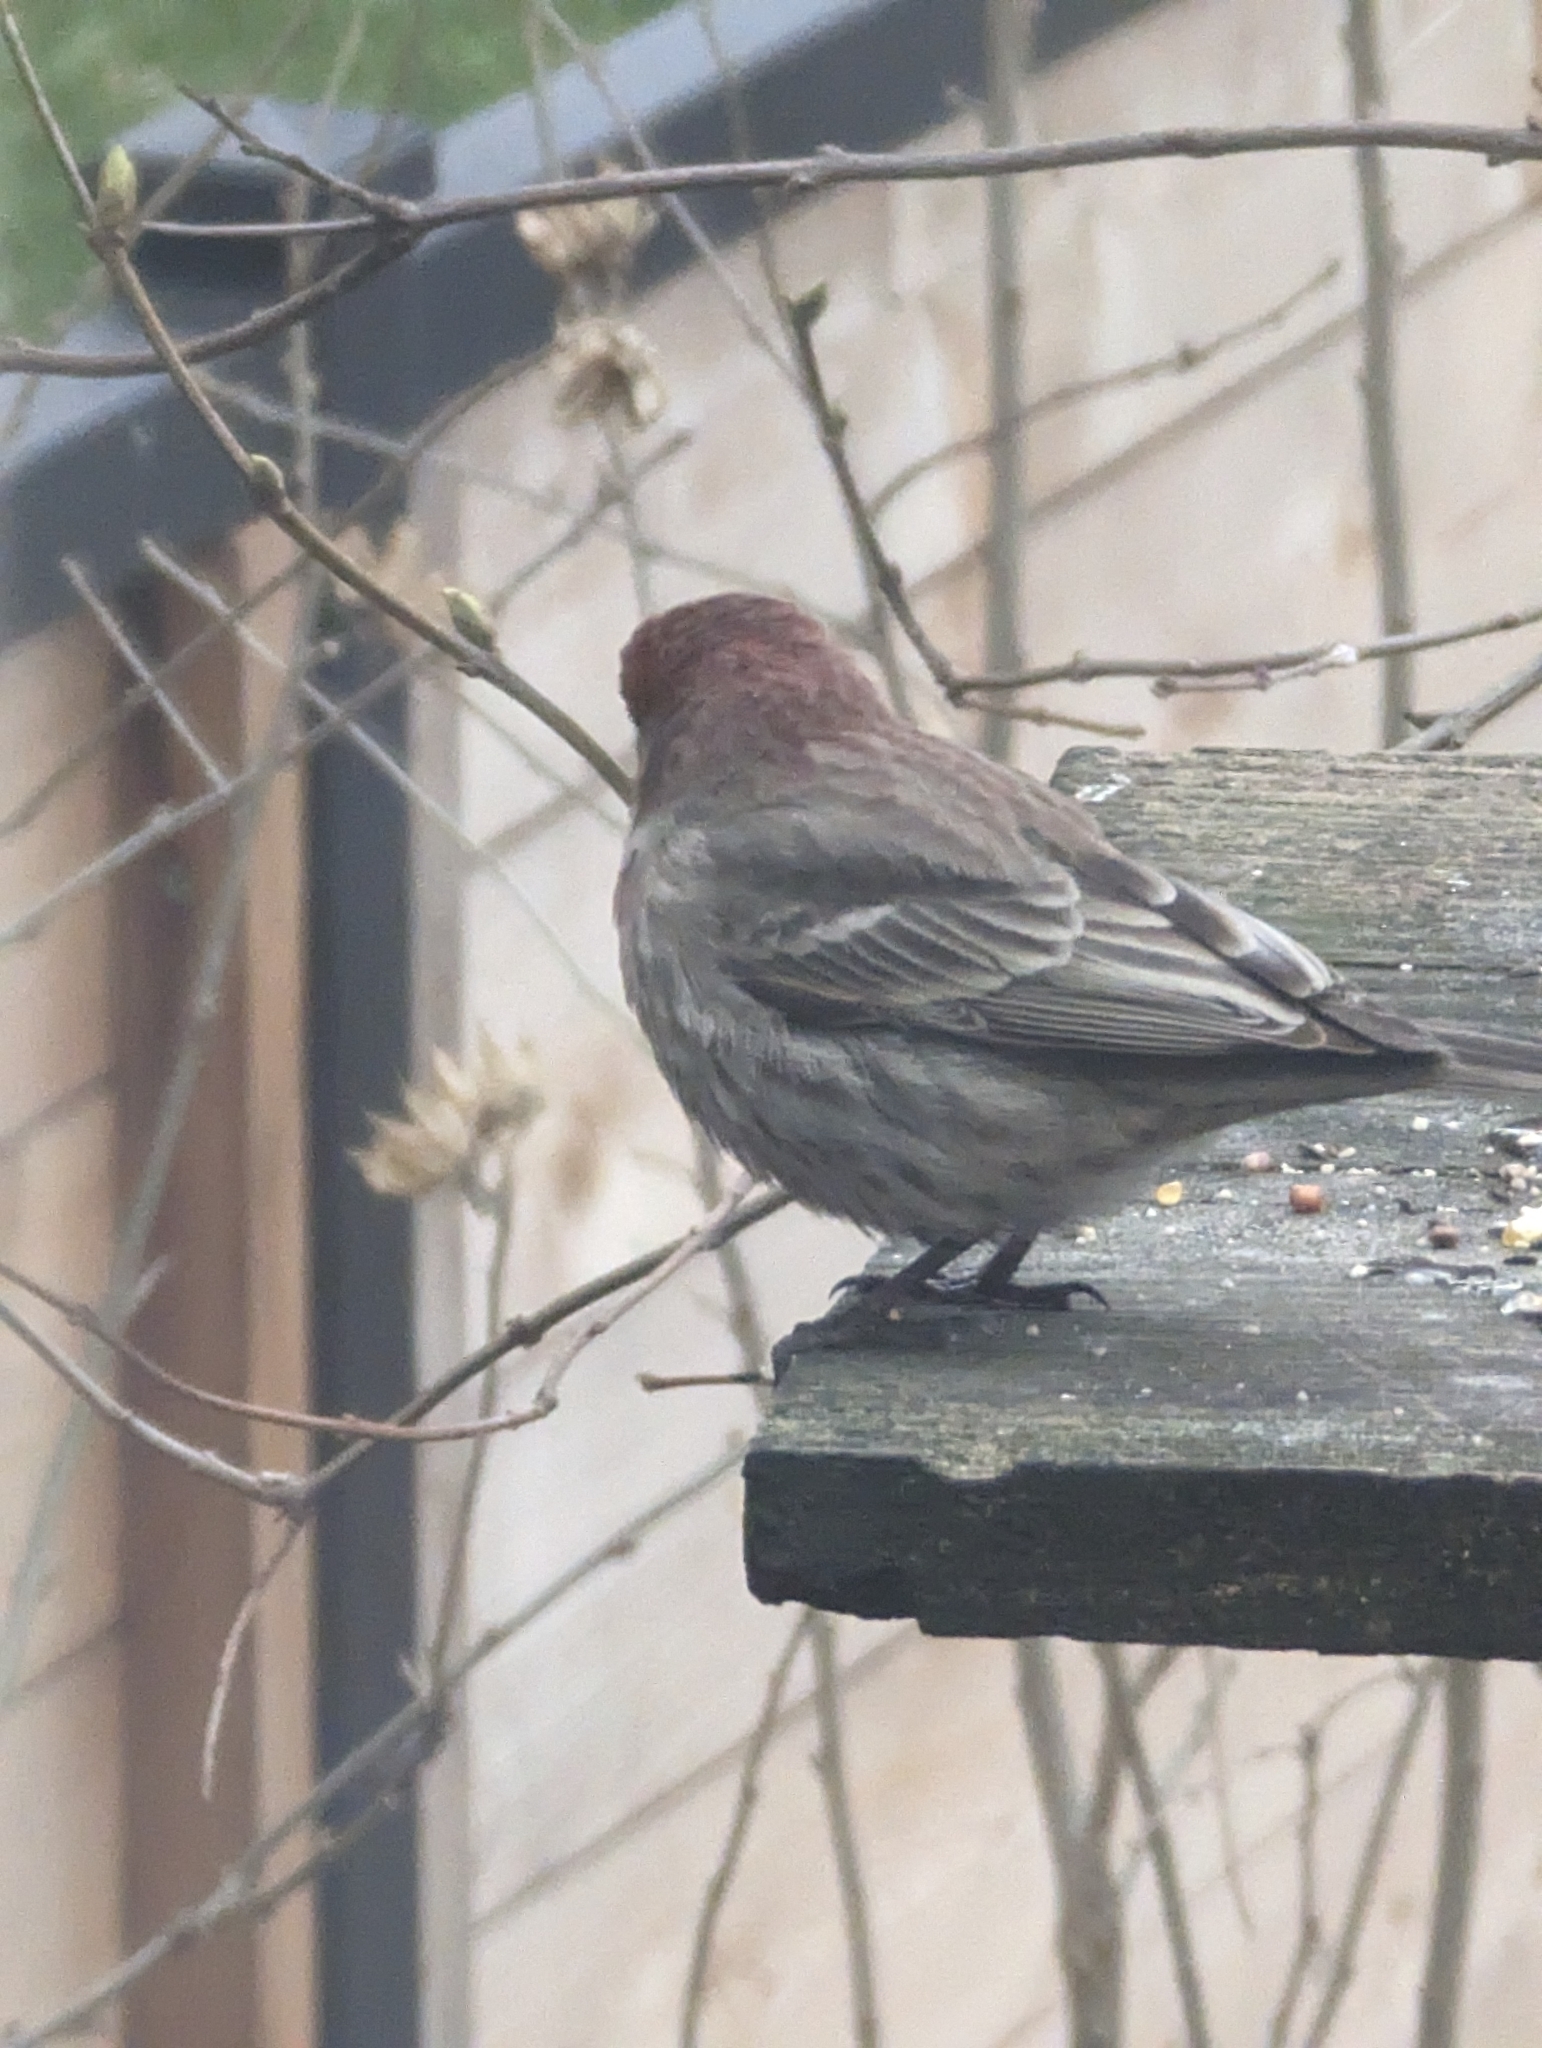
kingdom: Animalia
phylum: Chordata
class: Aves
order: Passeriformes
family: Fringillidae
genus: Haemorhous
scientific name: Haemorhous mexicanus
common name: House finch
